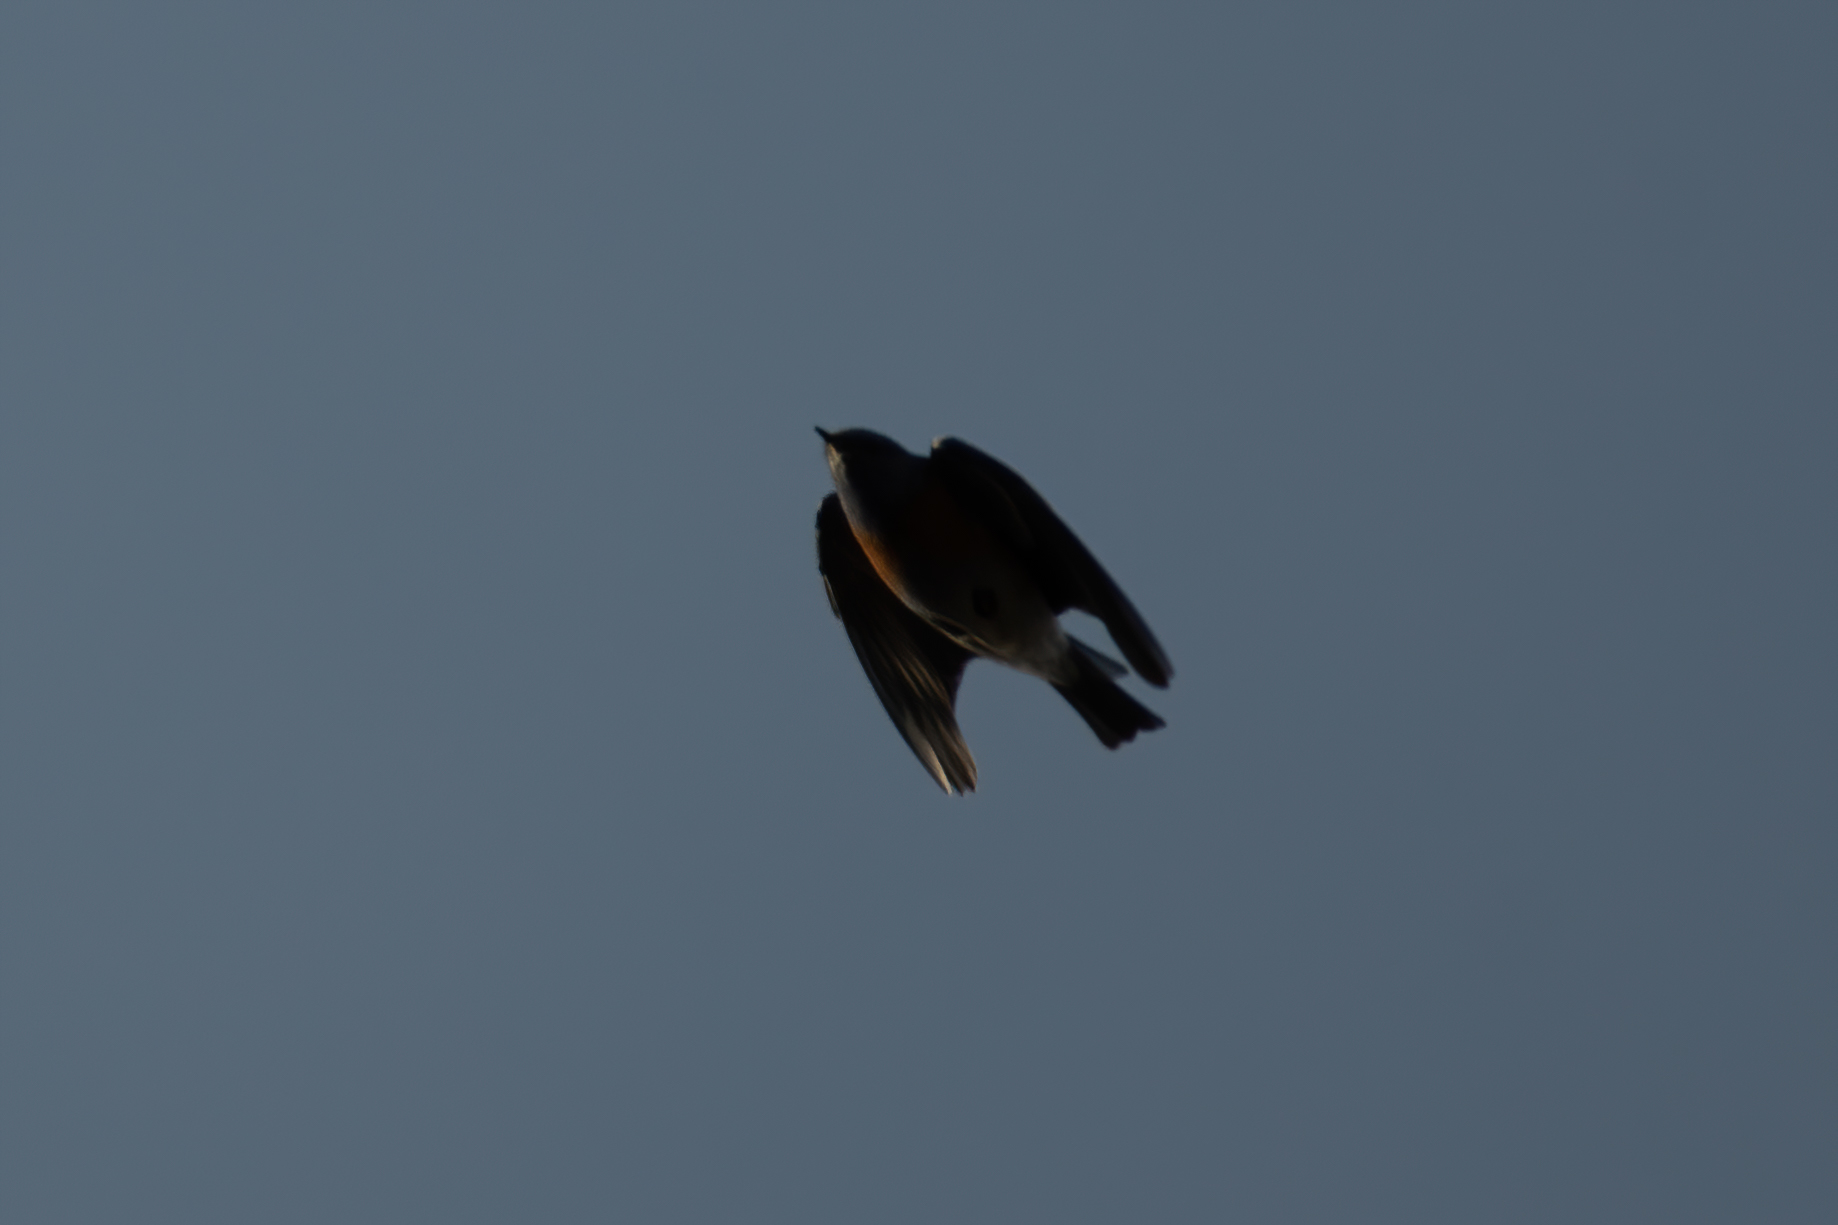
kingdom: Animalia
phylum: Chordata
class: Aves
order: Passeriformes
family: Turdidae
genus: Sialia
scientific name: Sialia mexicana
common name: Western bluebird
